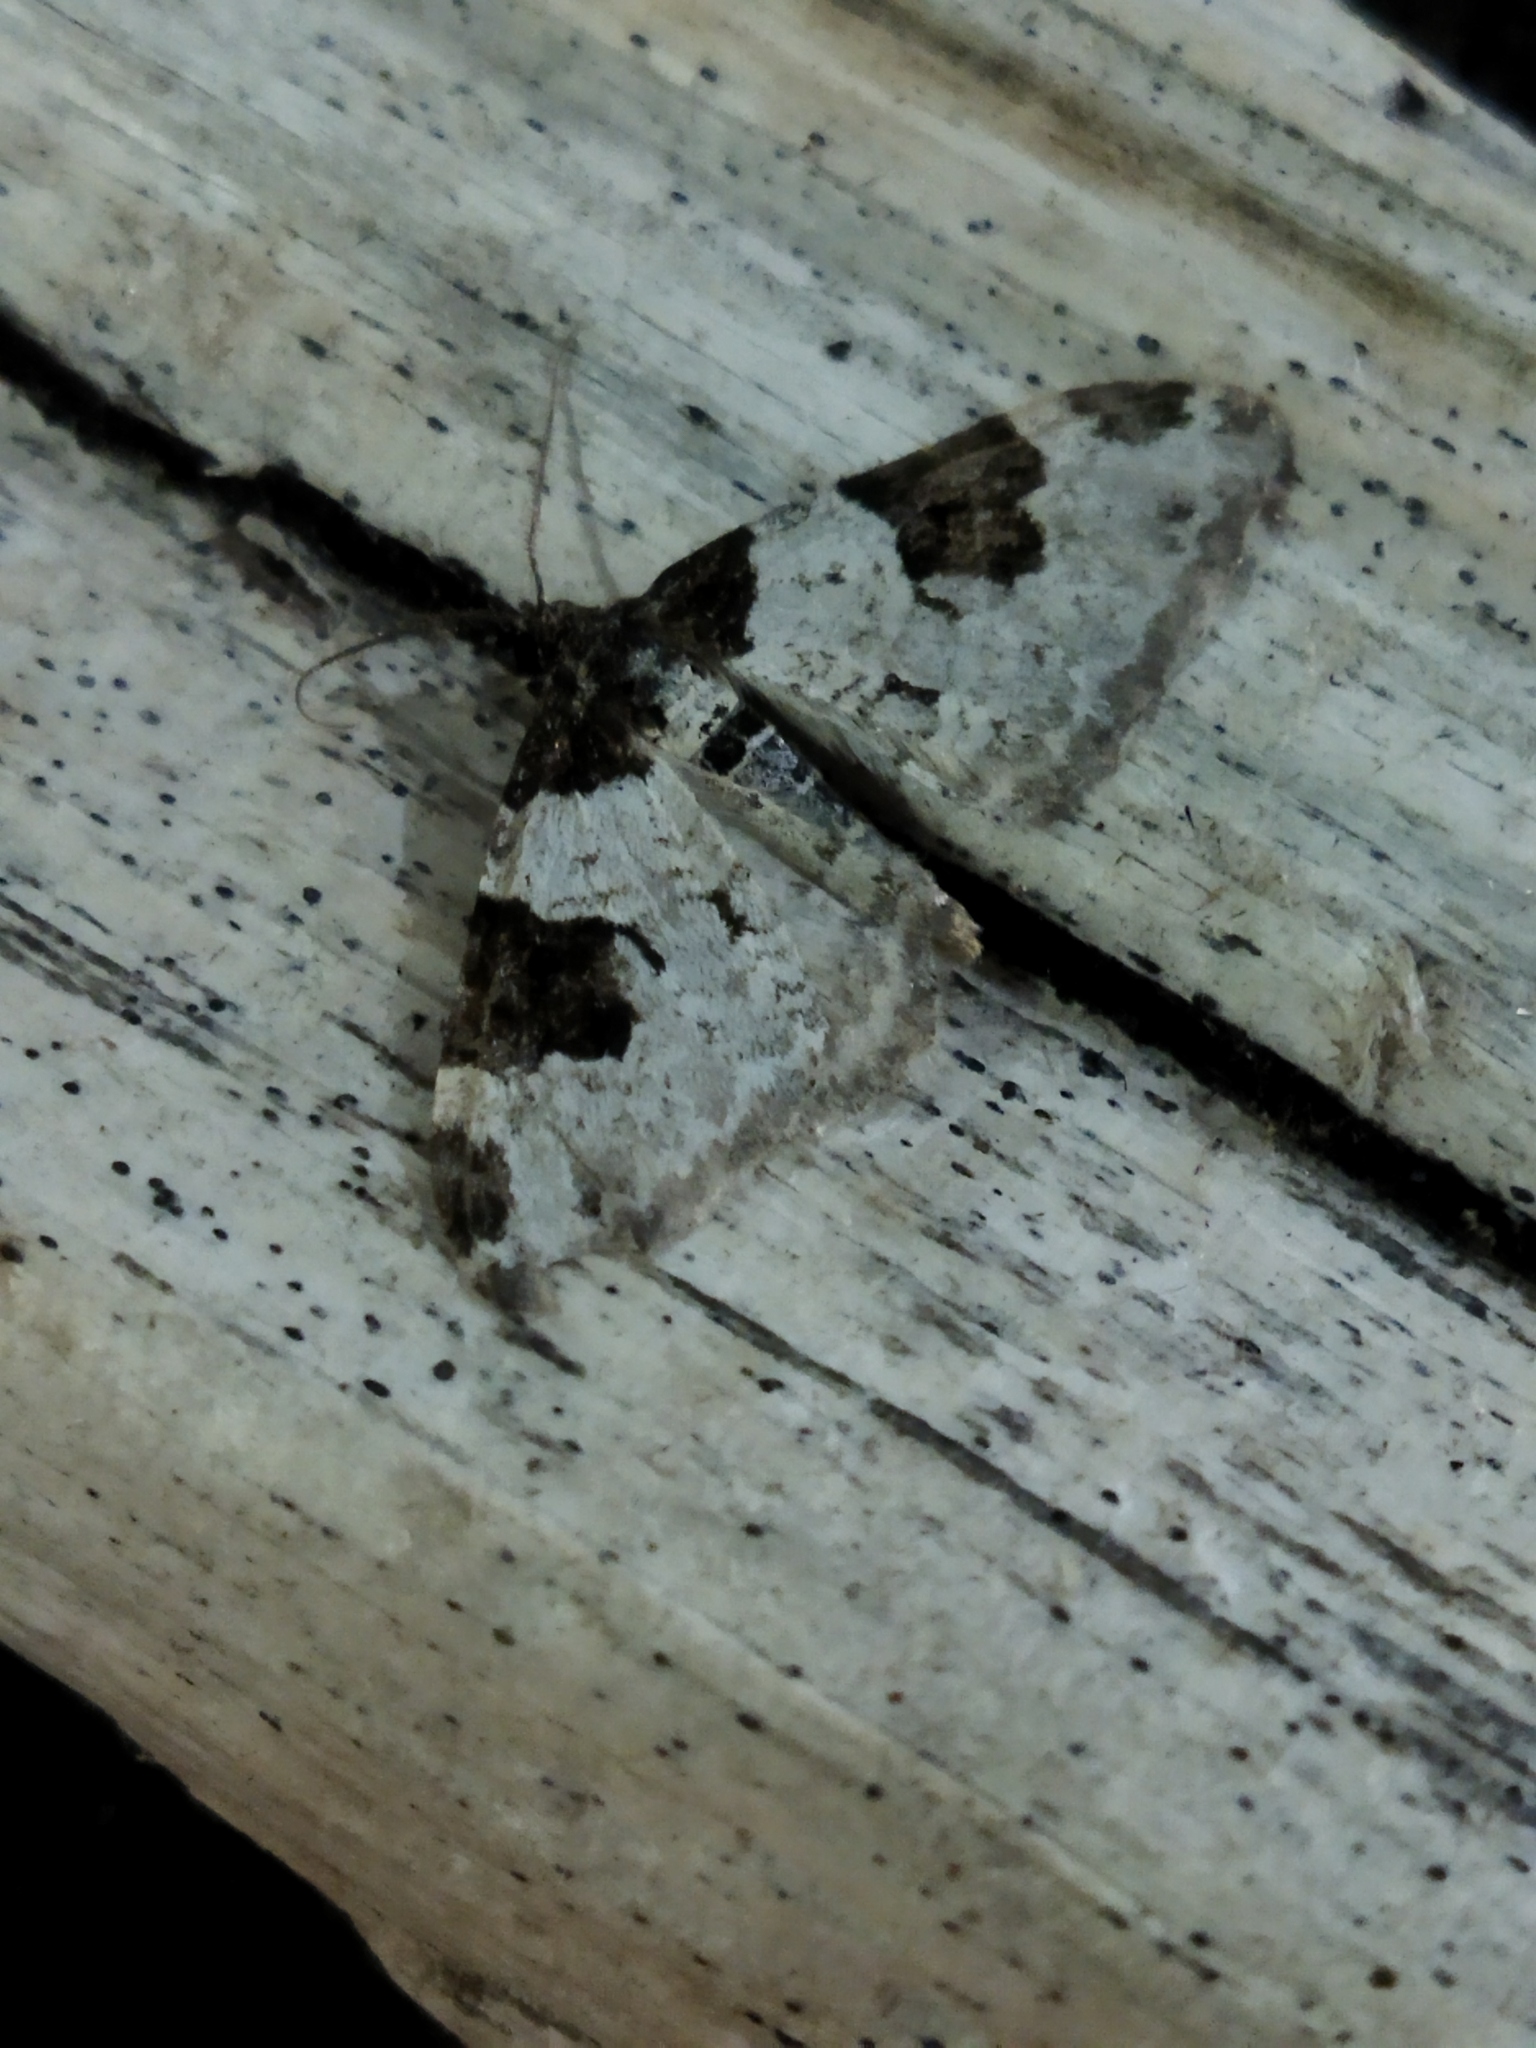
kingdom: Animalia
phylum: Arthropoda
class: Insecta
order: Lepidoptera
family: Geometridae
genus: Xanthorhoe
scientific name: Xanthorhoe fluctuata
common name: Garden carpet
